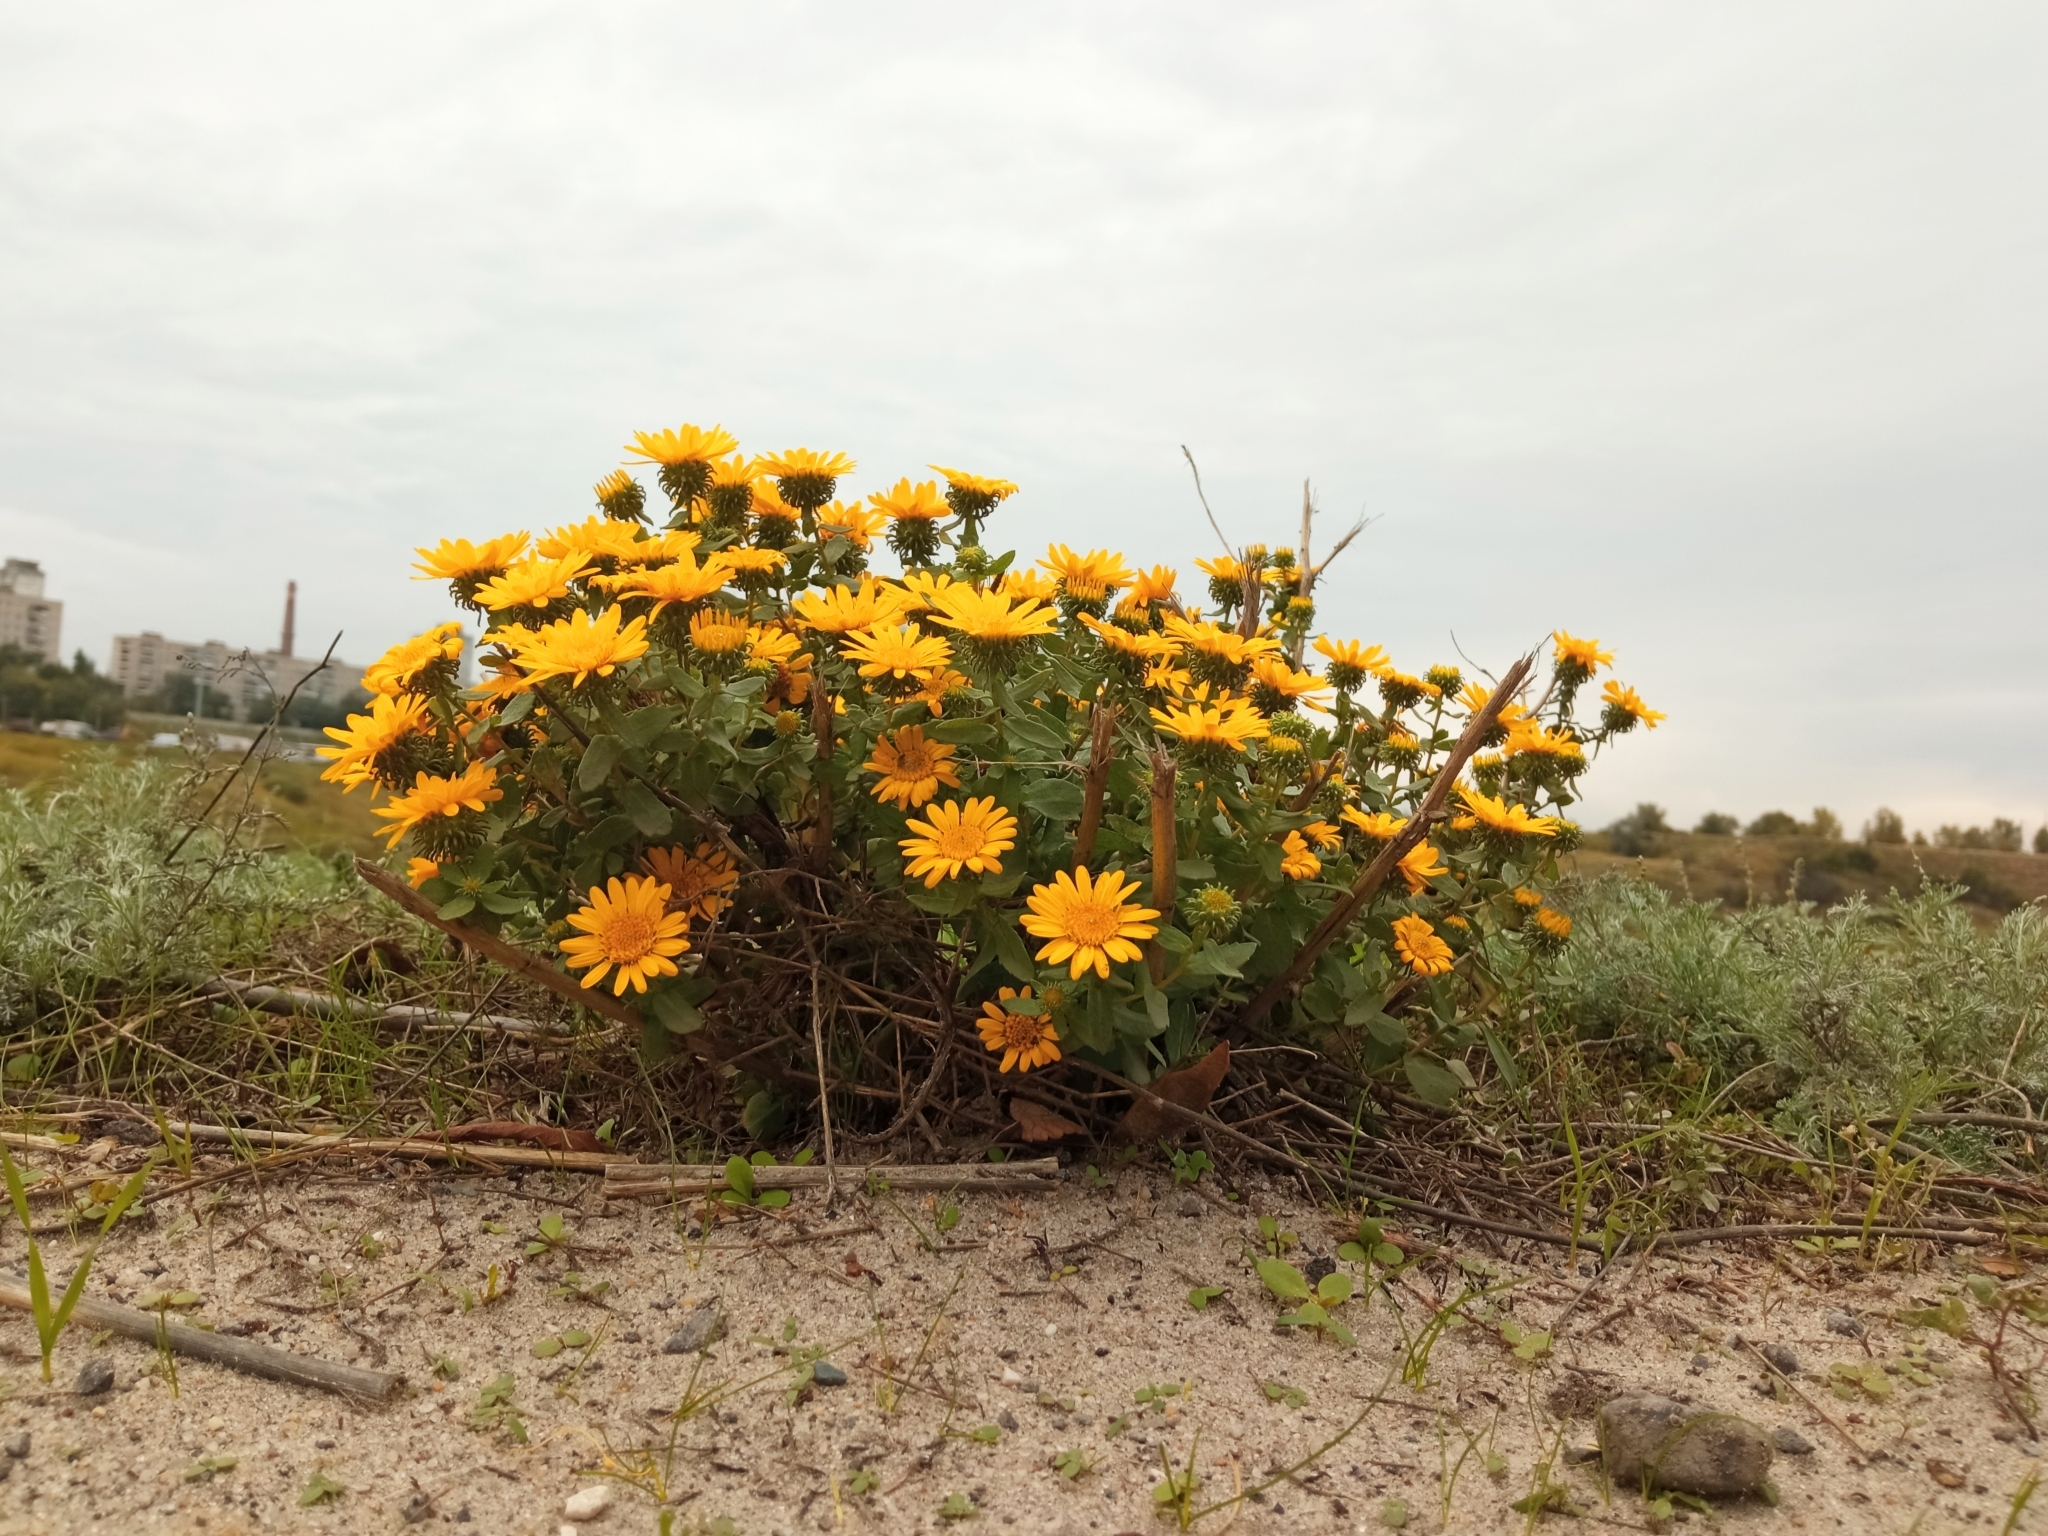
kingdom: Plantae
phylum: Tracheophyta
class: Magnoliopsida
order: Asterales
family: Asteraceae
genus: Grindelia
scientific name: Grindelia squarrosa
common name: Curly-cup gumweed
